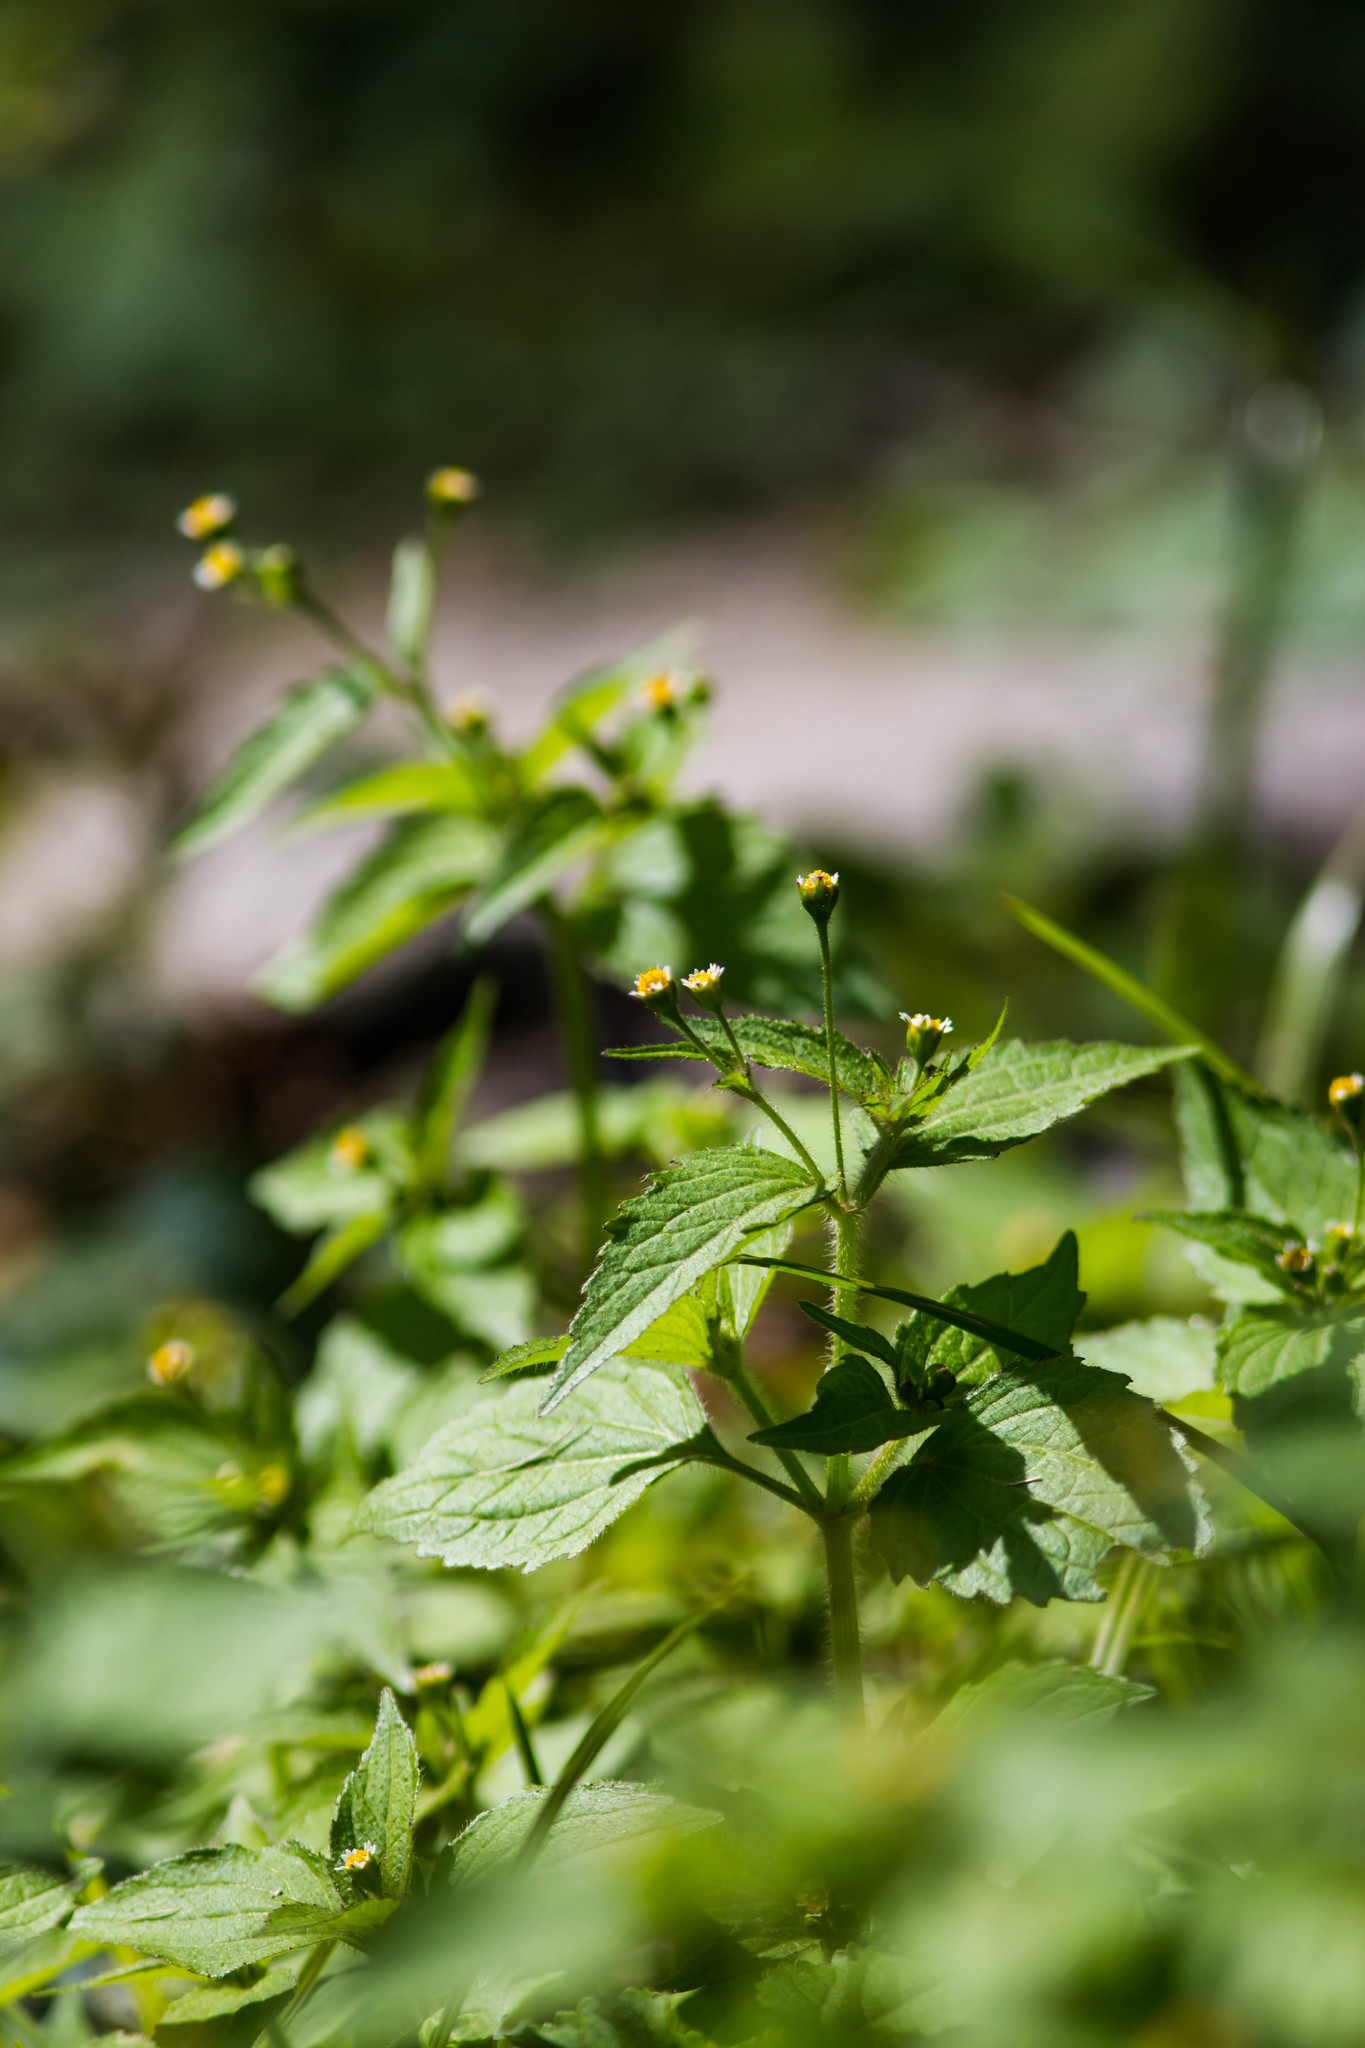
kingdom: Plantae
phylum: Tracheophyta
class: Magnoliopsida
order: Asterales
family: Asteraceae
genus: Galinsoga
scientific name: Galinsoga quadriradiata
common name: Shaggy soldier
